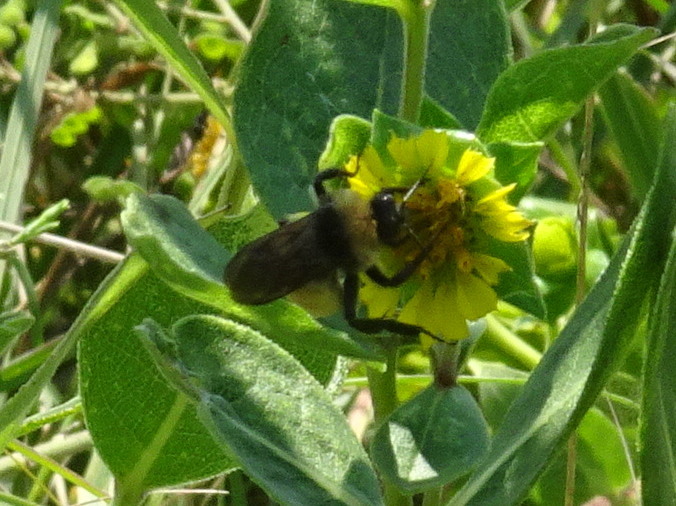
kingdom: Animalia
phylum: Arthropoda
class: Insecta
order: Hymenoptera
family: Apidae
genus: Bombus
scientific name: Bombus pensylvanicus
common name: Bumble bee
